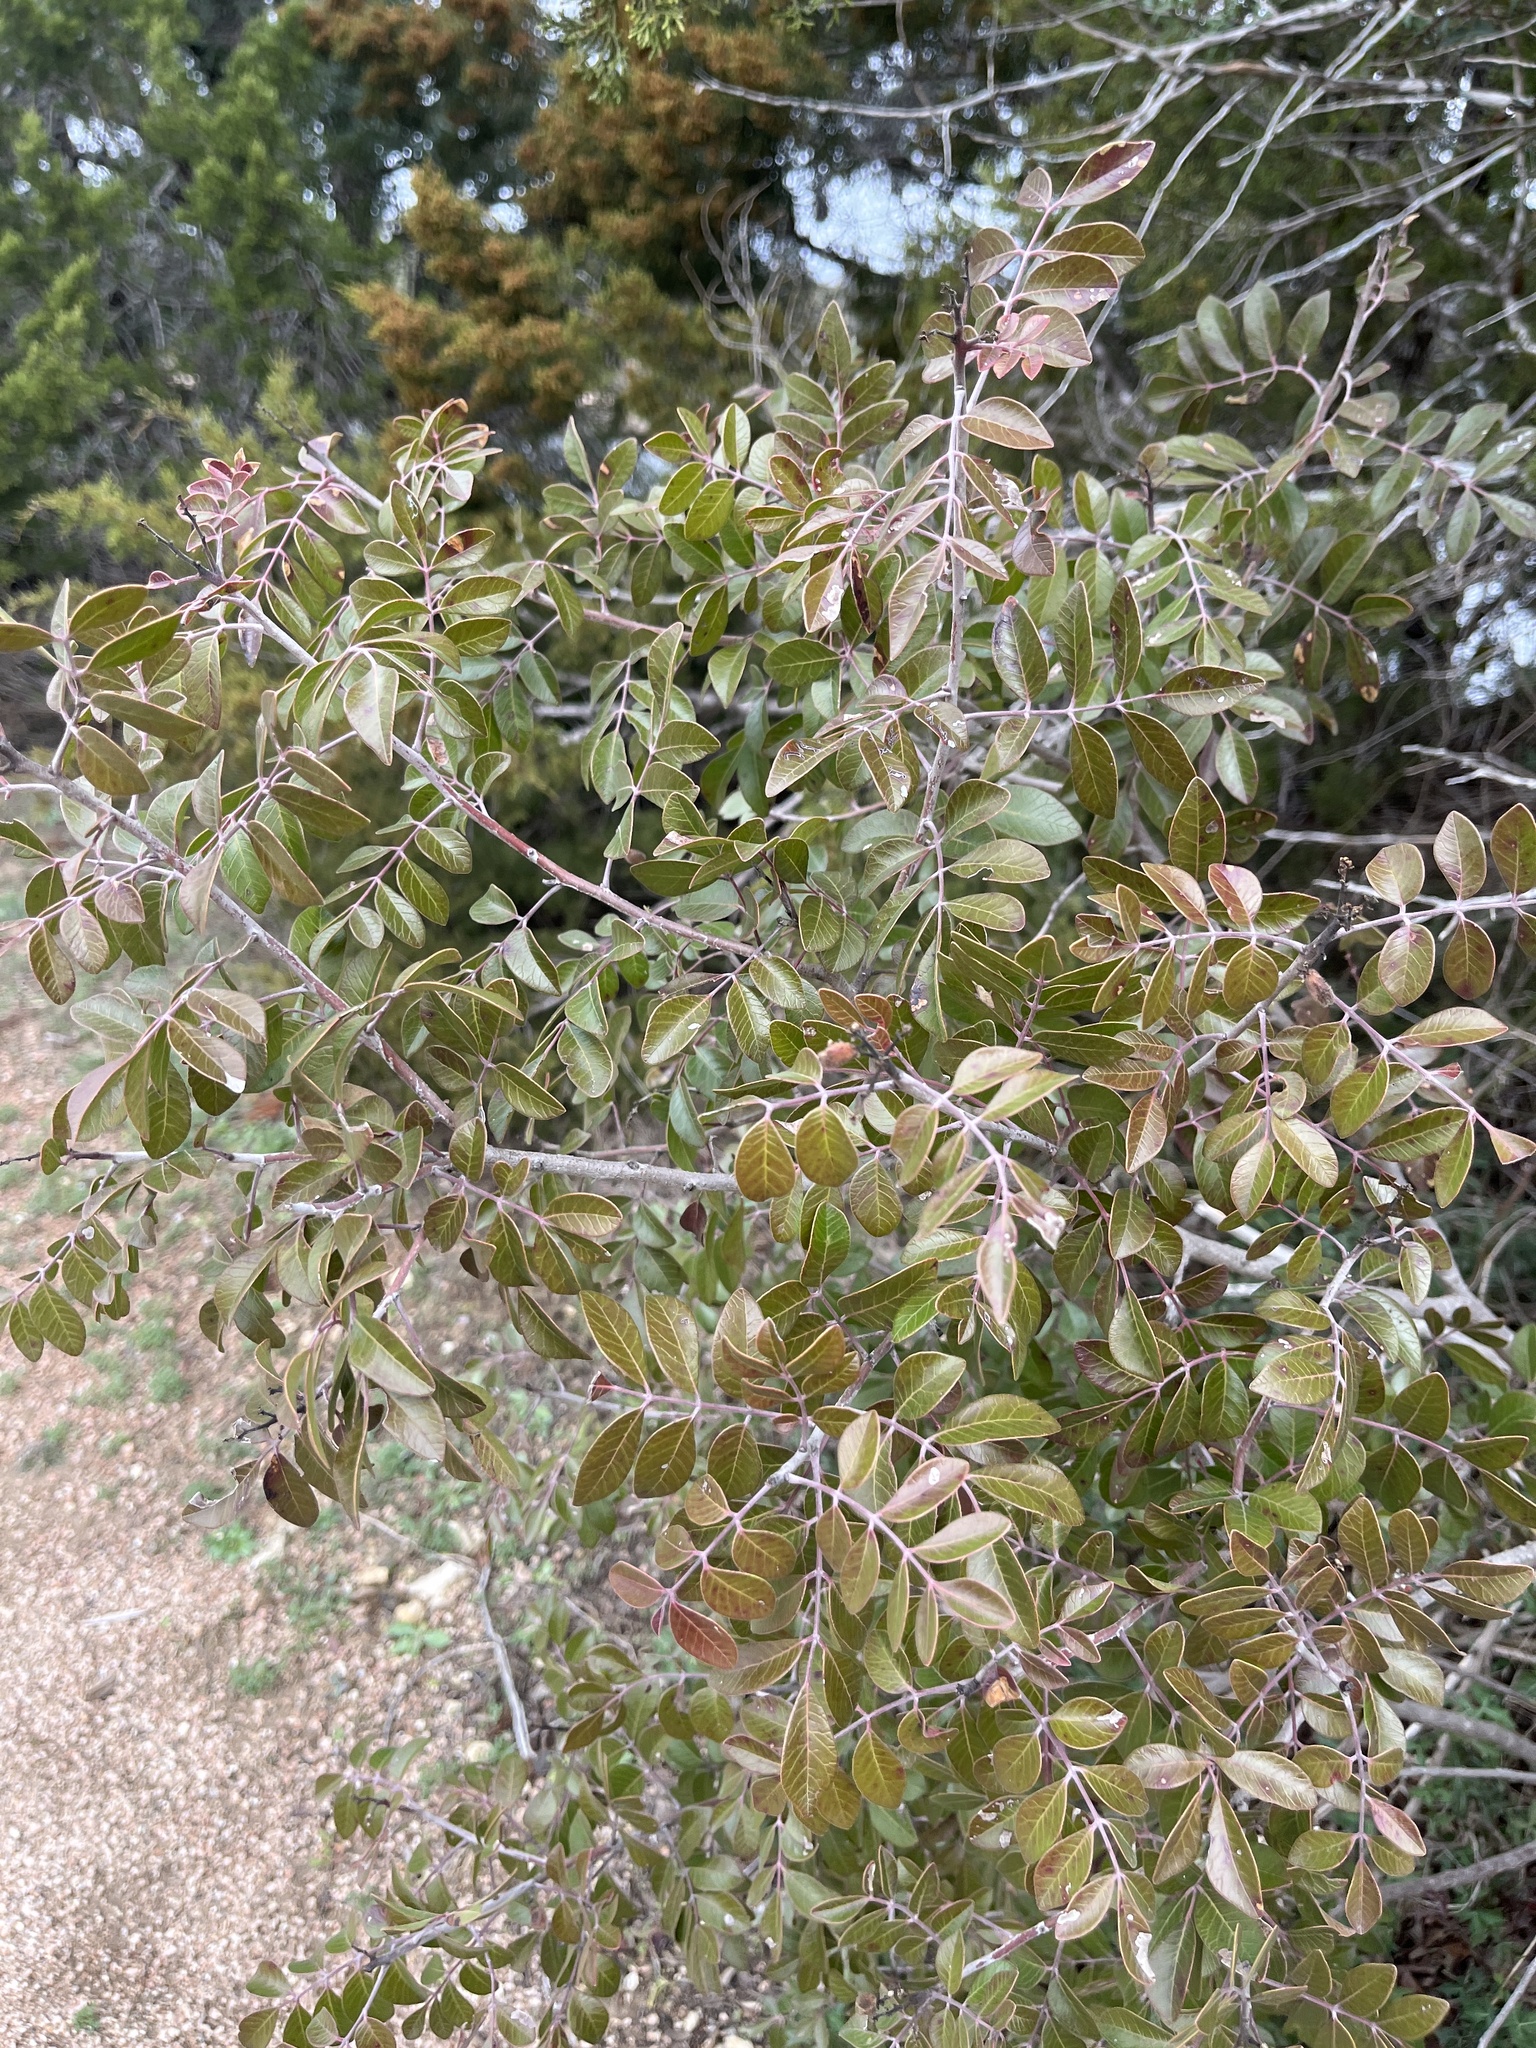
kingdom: Plantae
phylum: Tracheophyta
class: Magnoliopsida
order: Sapindales
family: Anacardiaceae
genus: Rhus
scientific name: Rhus virens
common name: Evergreen sumac
